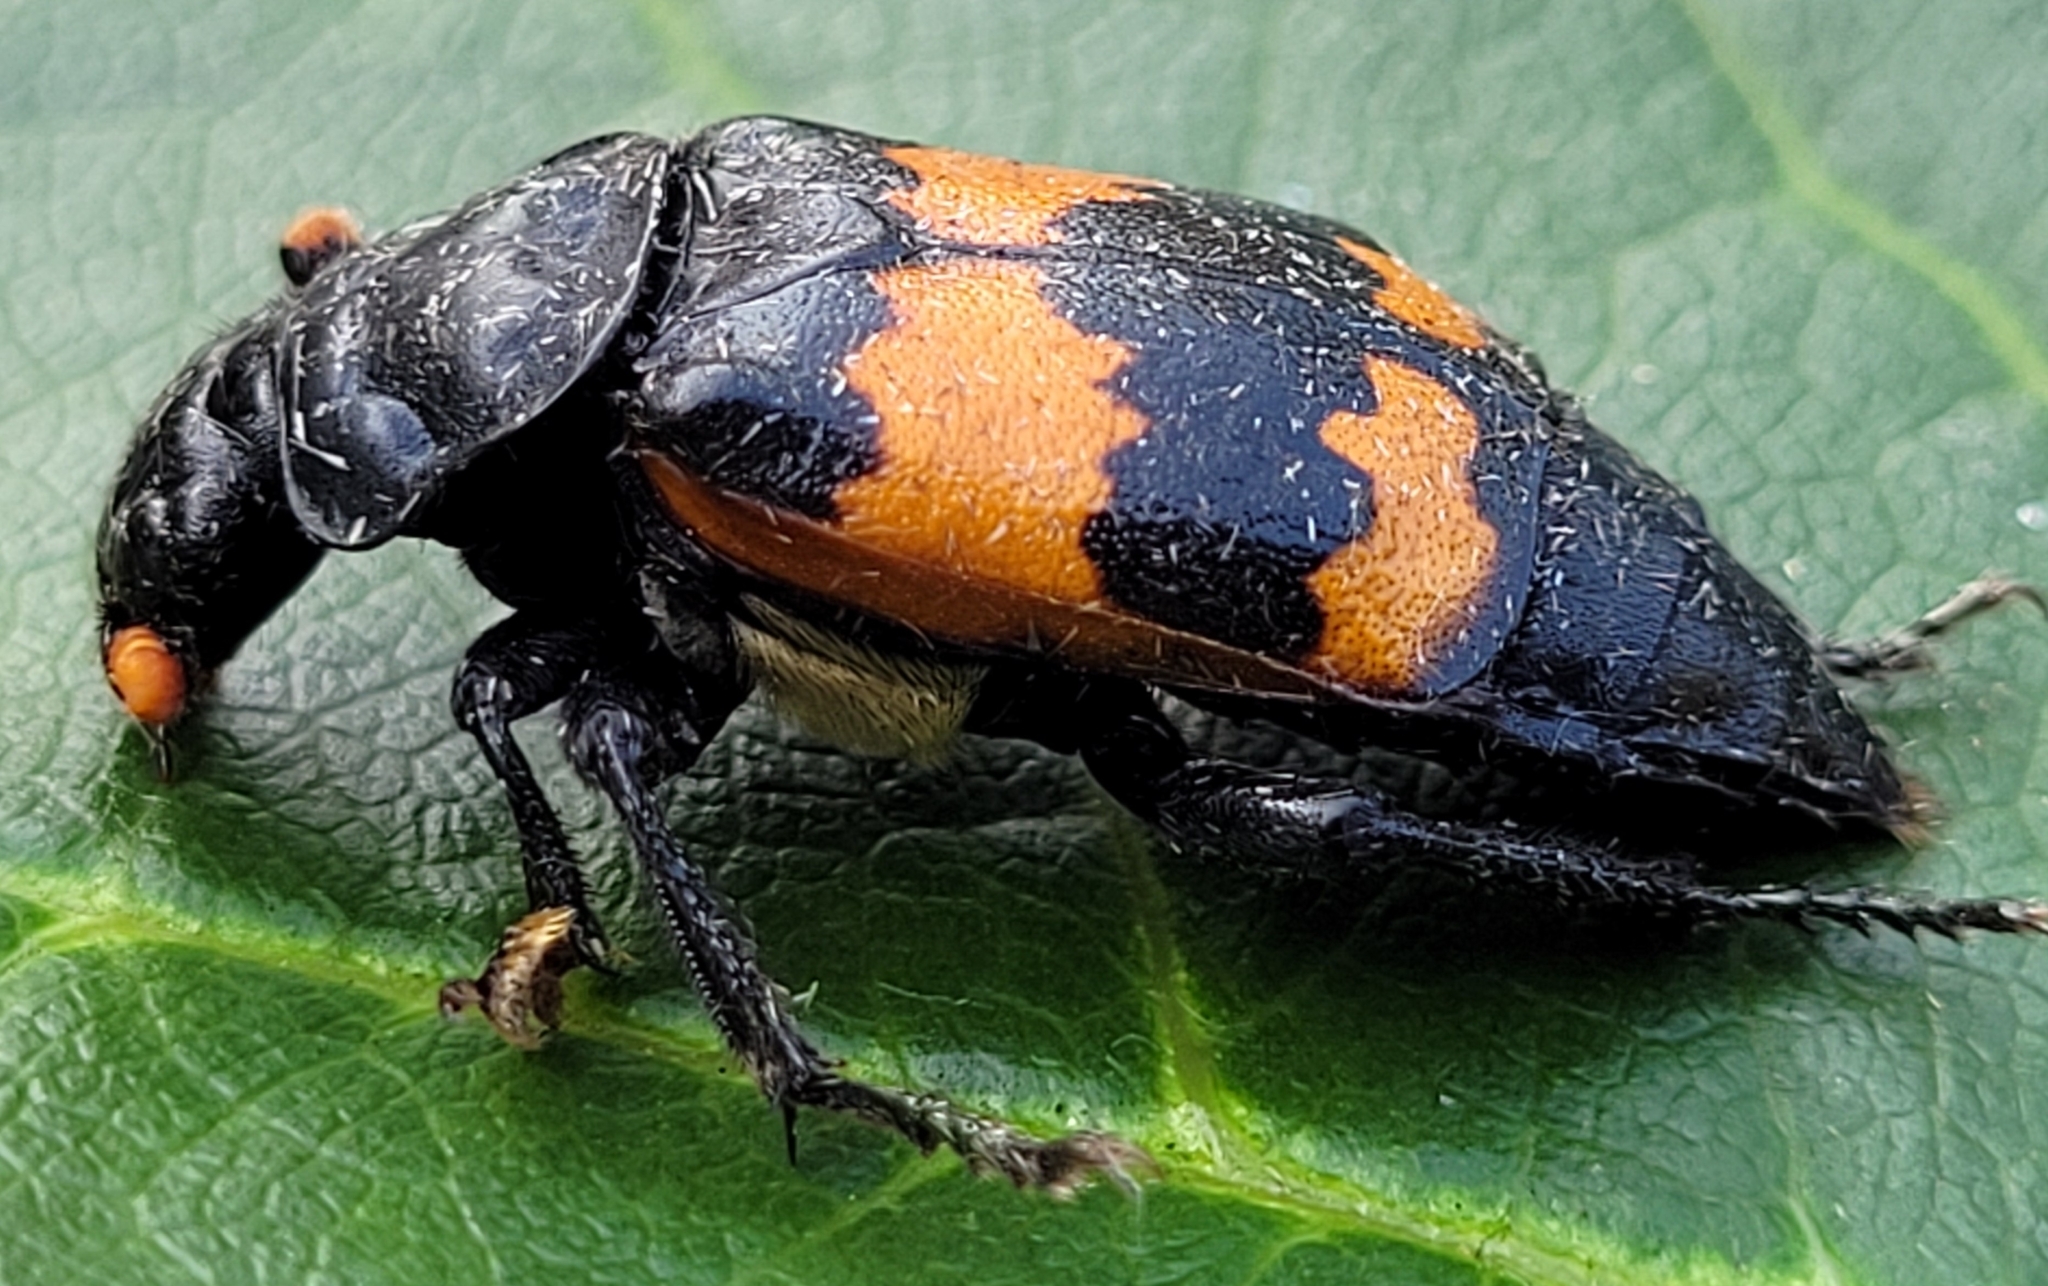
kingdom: Animalia
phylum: Arthropoda
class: Insecta
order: Coleoptera
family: Staphylinidae
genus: Nicrophorus
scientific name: Nicrophorus investigator
